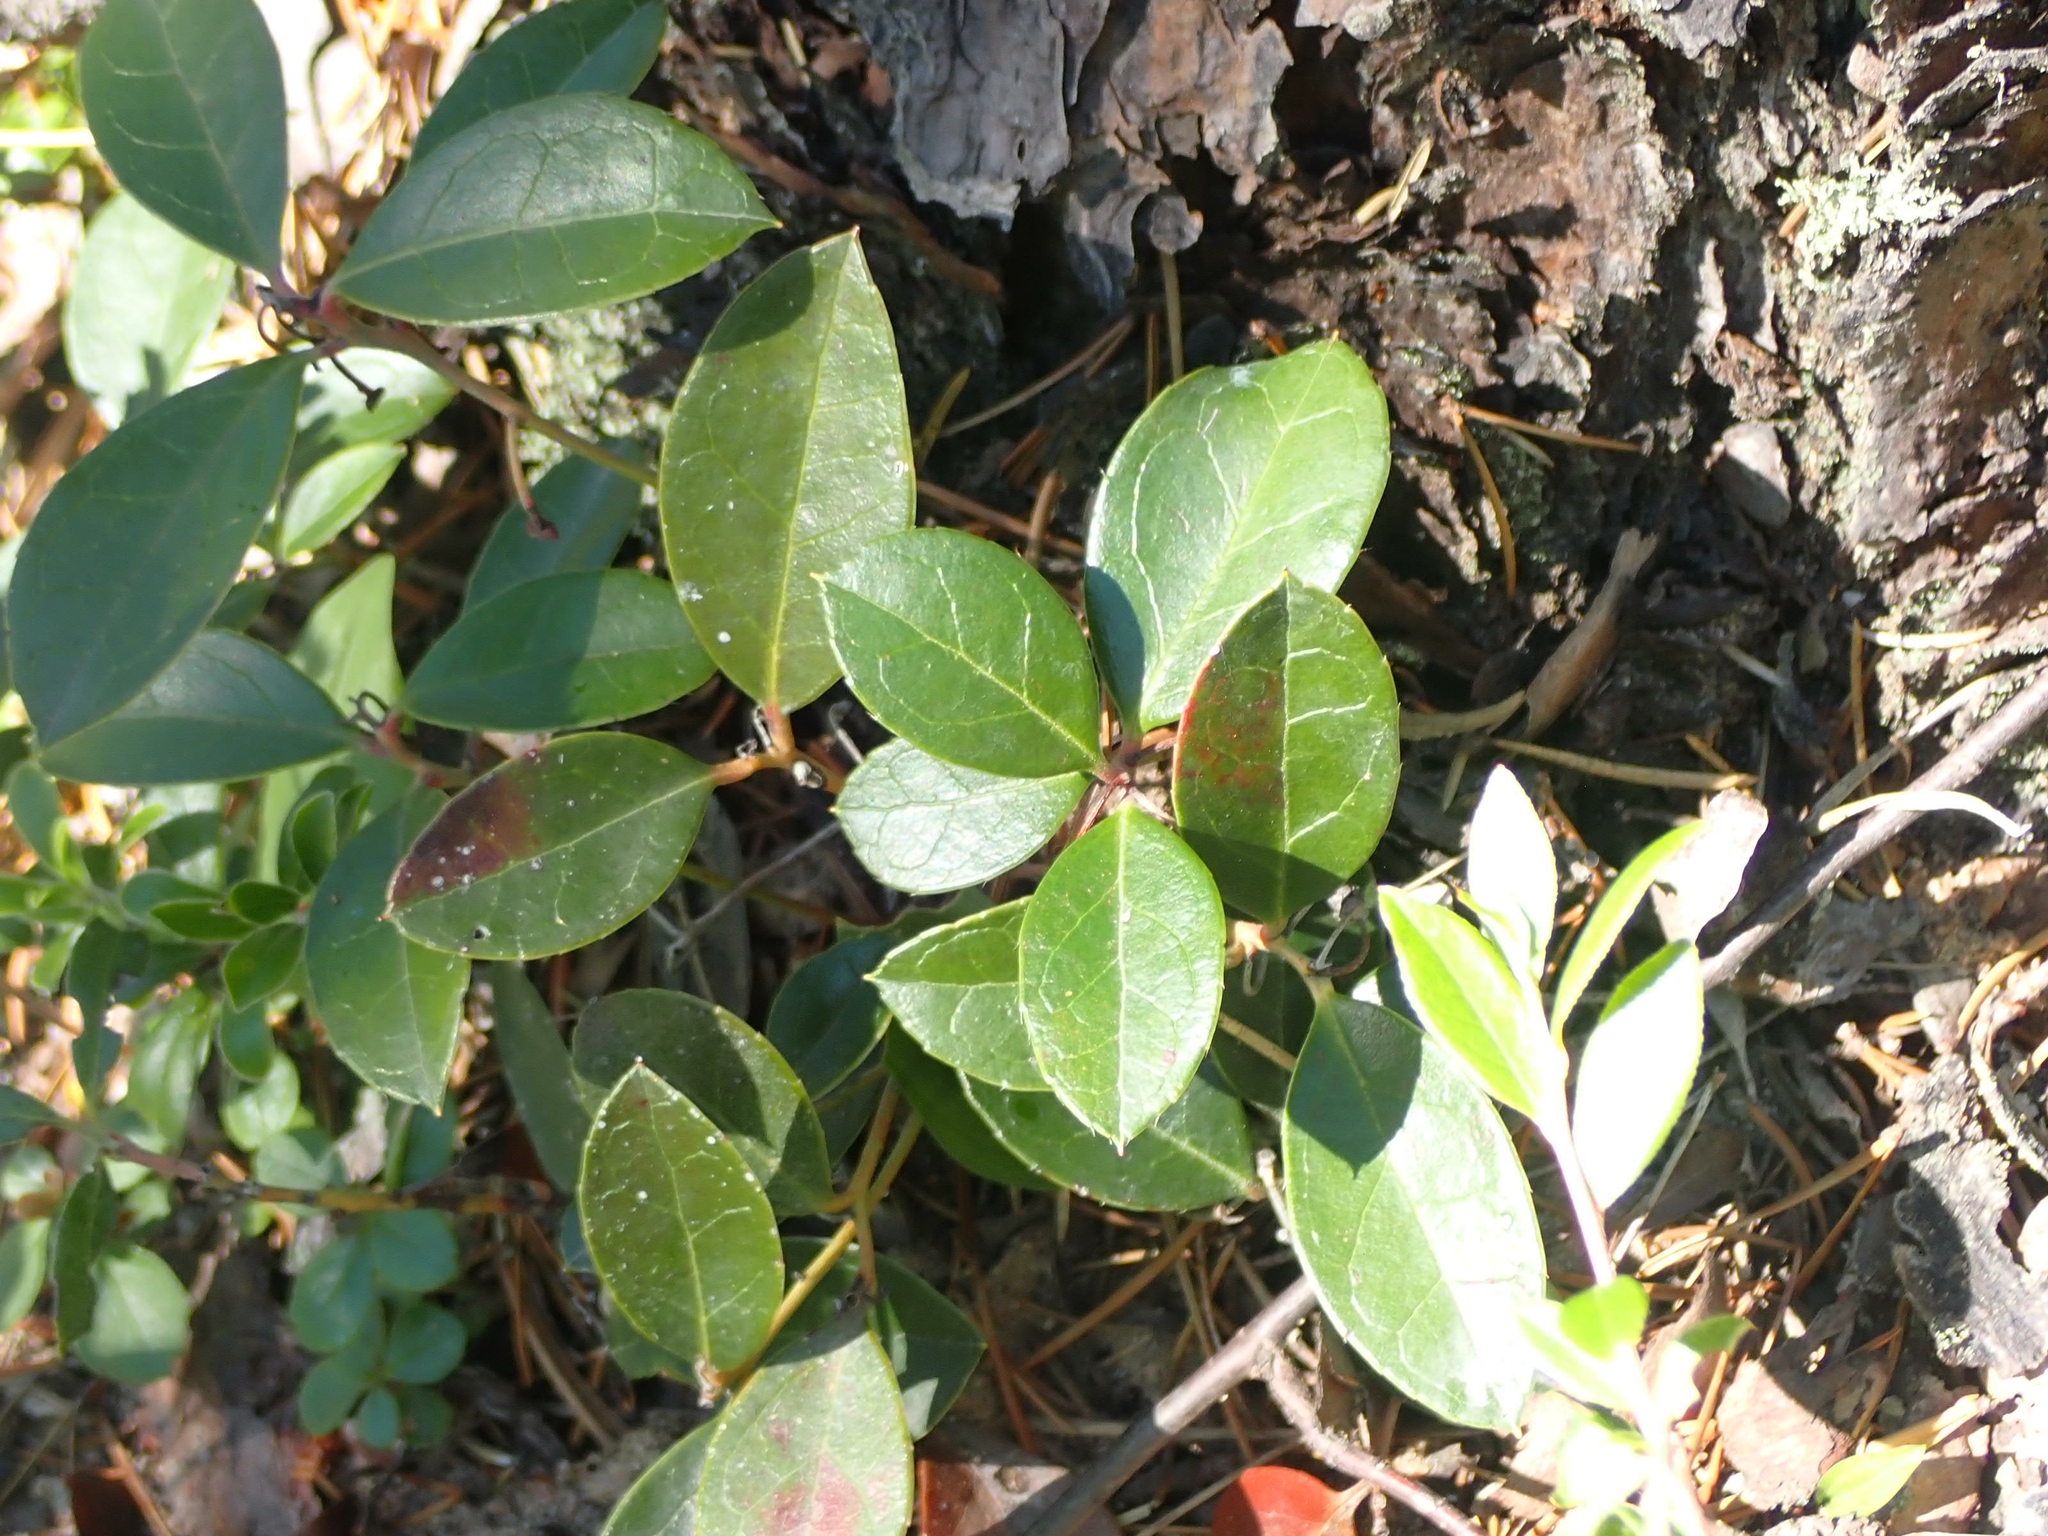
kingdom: Plantae
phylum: Tracheophyta
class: Magnoliopsida
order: Ericales
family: Ericaceae
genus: Gaultheria
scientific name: Gaultheria procumbens
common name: Checkerberry
